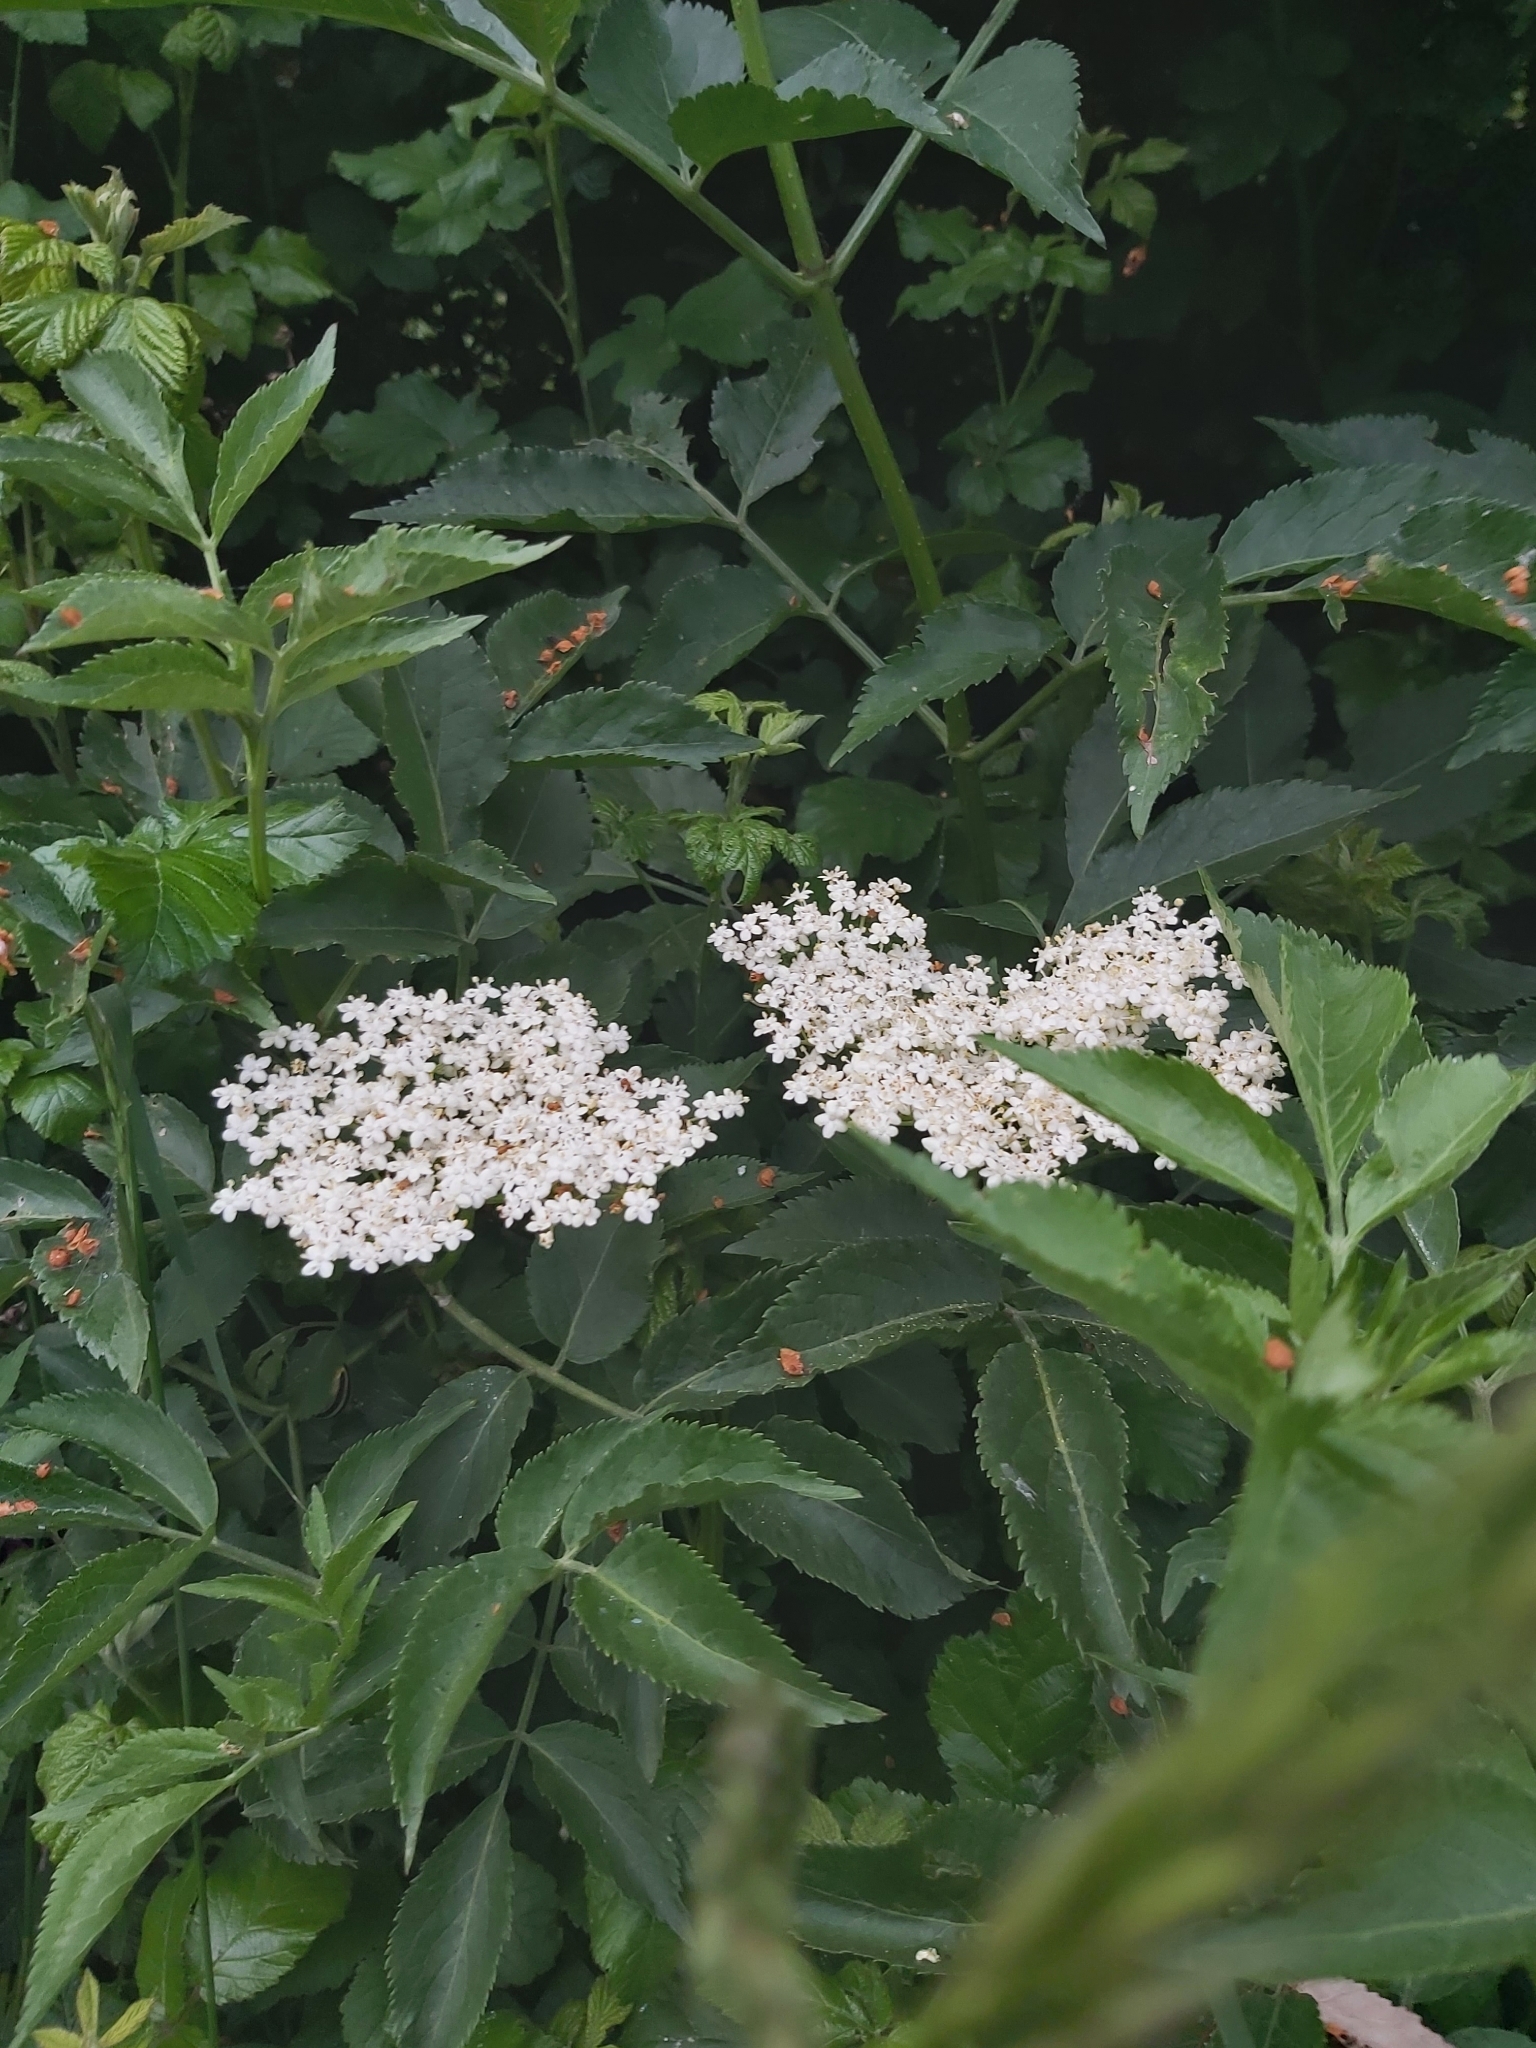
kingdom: Plantae
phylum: Tracheophyta
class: Magnoliopsida
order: Dipsacales
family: Viburnaceae
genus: Sambucus
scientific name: Sambucus nigra
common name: Elder
